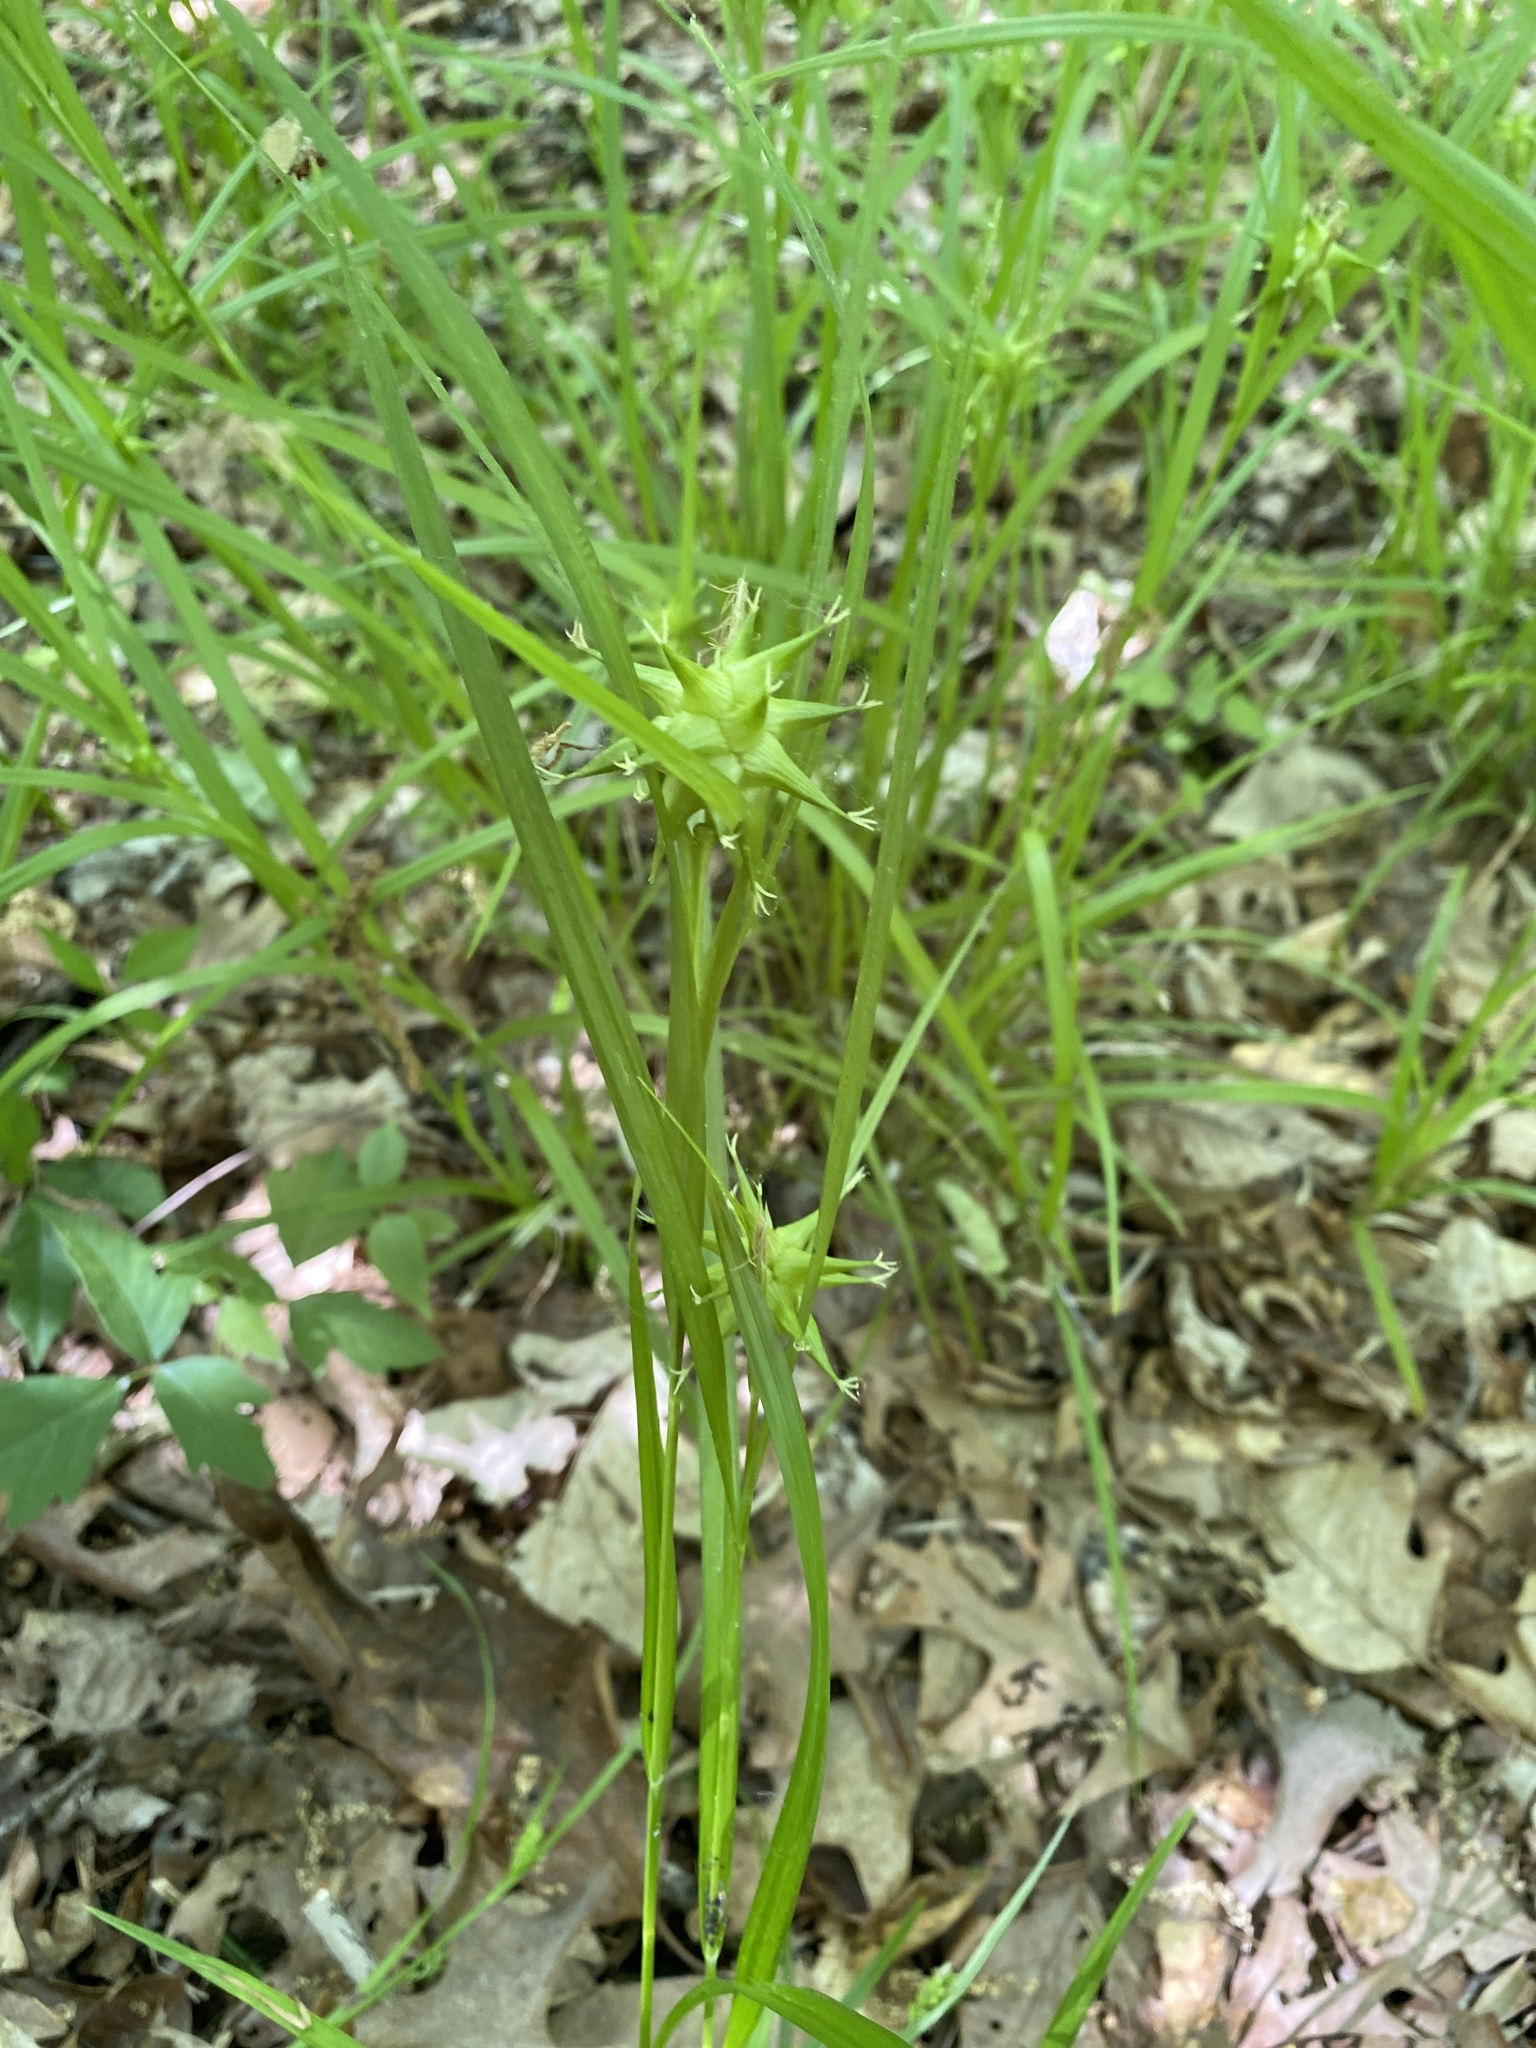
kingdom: Plantae
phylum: Tracheophyta
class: Liliopsida
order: Poales
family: Cyperaceae
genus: Carex
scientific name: Carex grayi
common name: Asa gray's sedge
